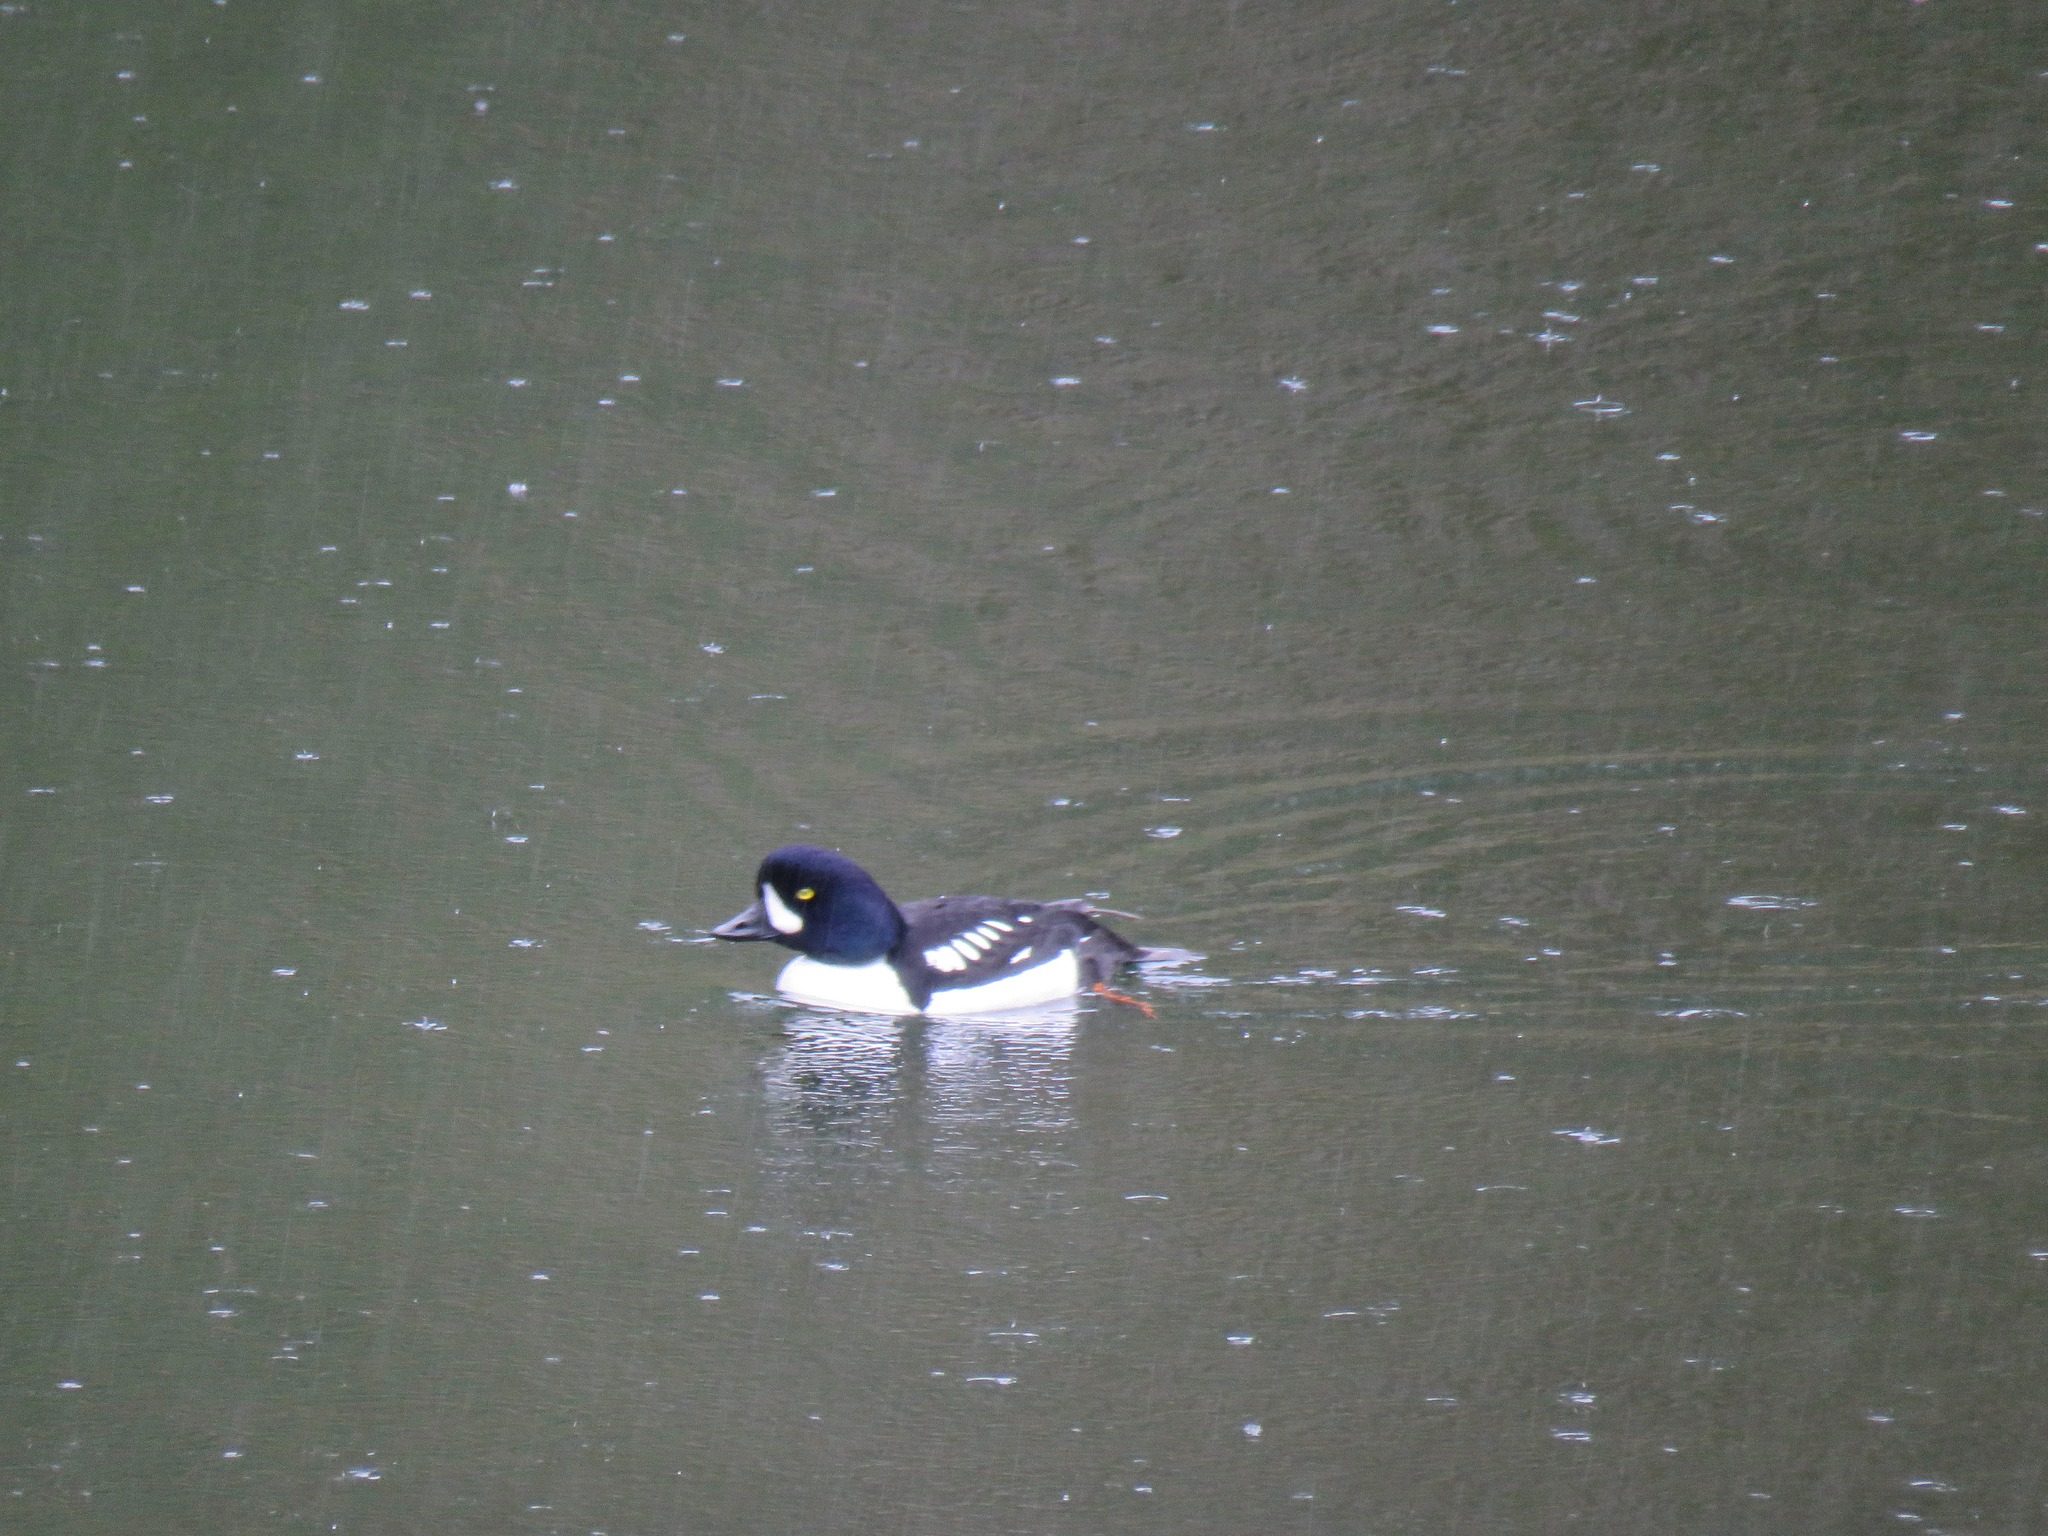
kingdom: Animalia
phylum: Chordata
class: Aves
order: Anseriformes
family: Anatidae
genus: Bucephala
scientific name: Bucephala islandica
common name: Barrow's goldeneye
